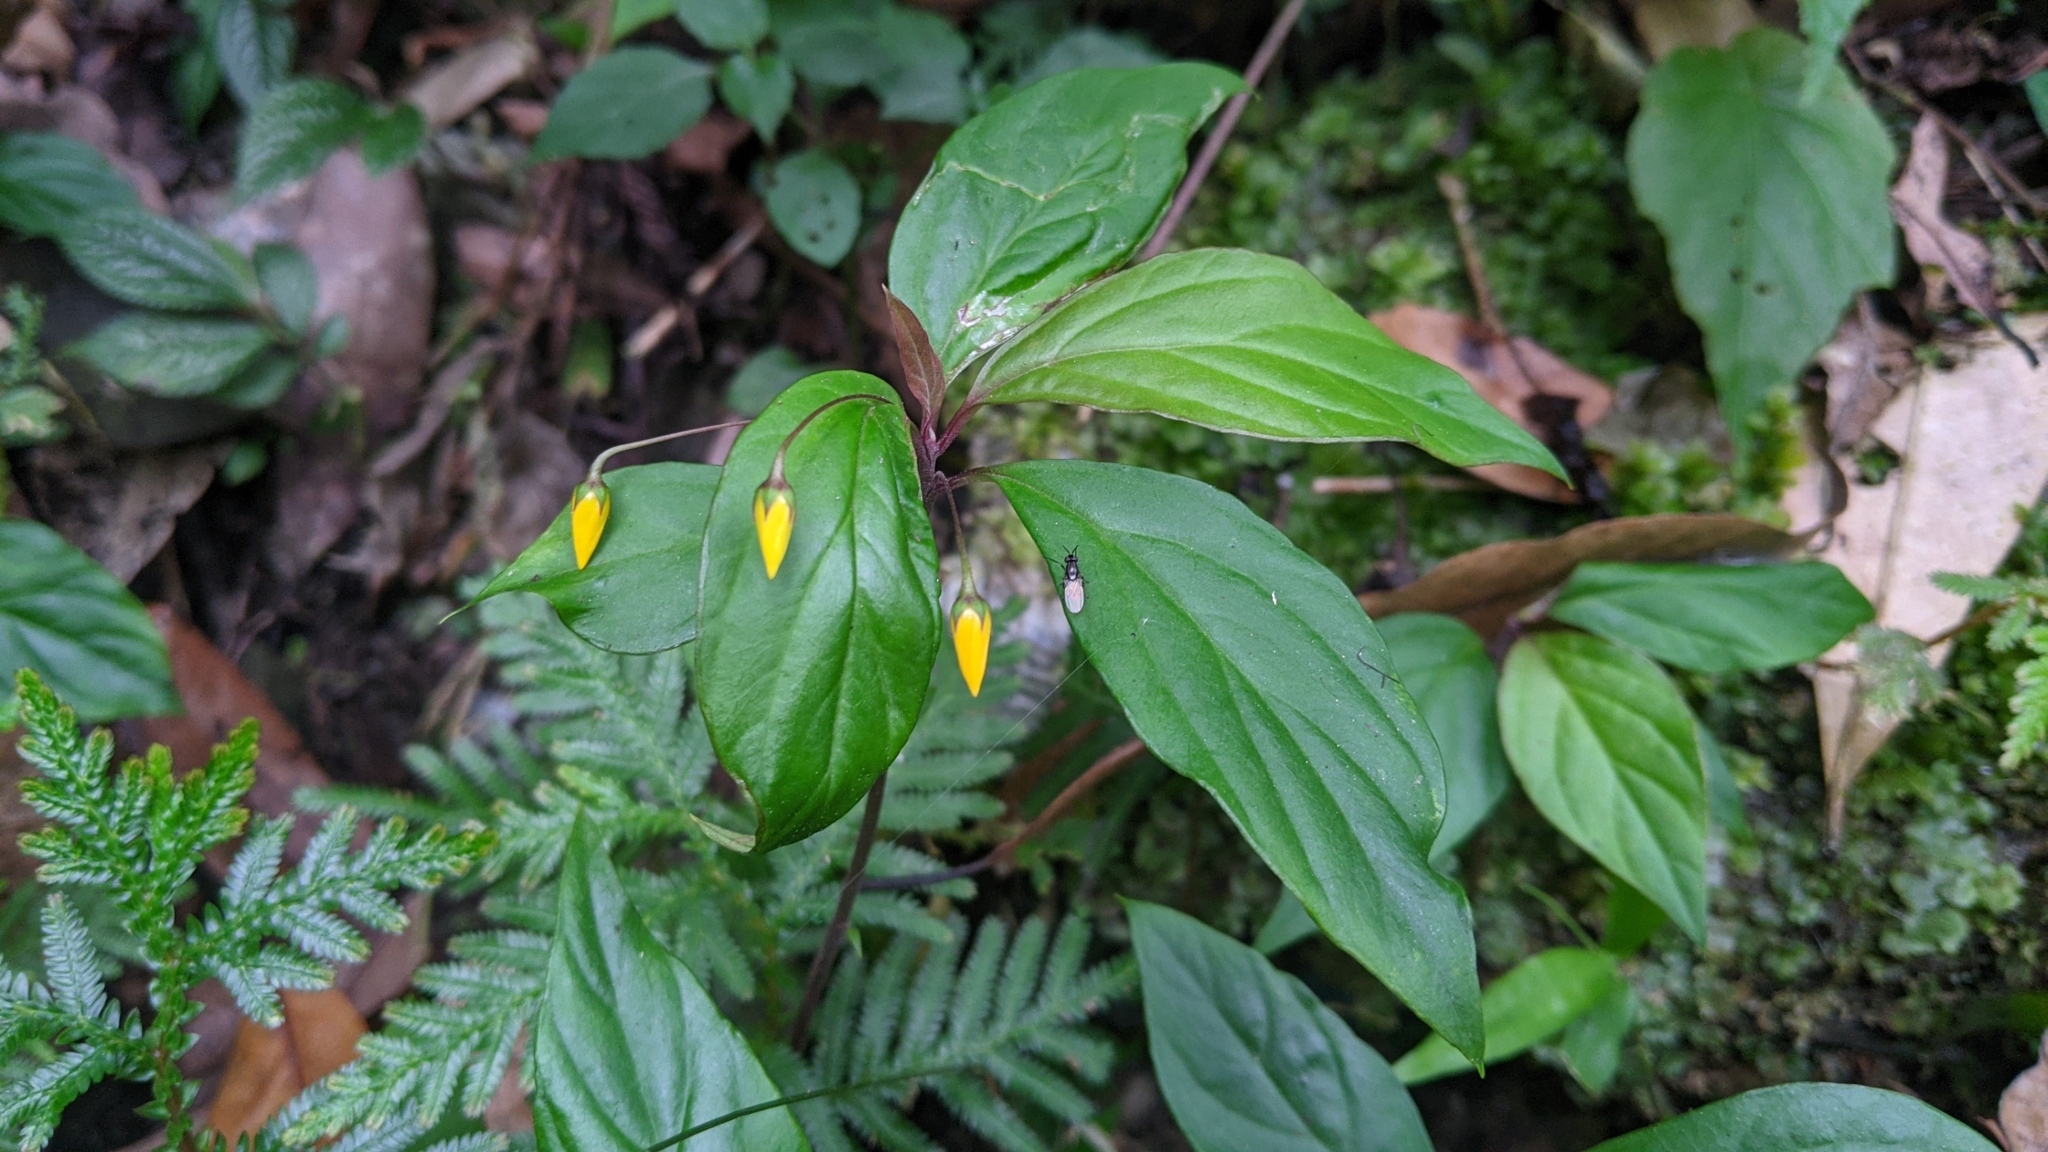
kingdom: Plantae
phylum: Tracheophyta
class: Magnoliopsida
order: Ericales
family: Primulaceae
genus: Lysimachia
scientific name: Lysimachia ardisioides
